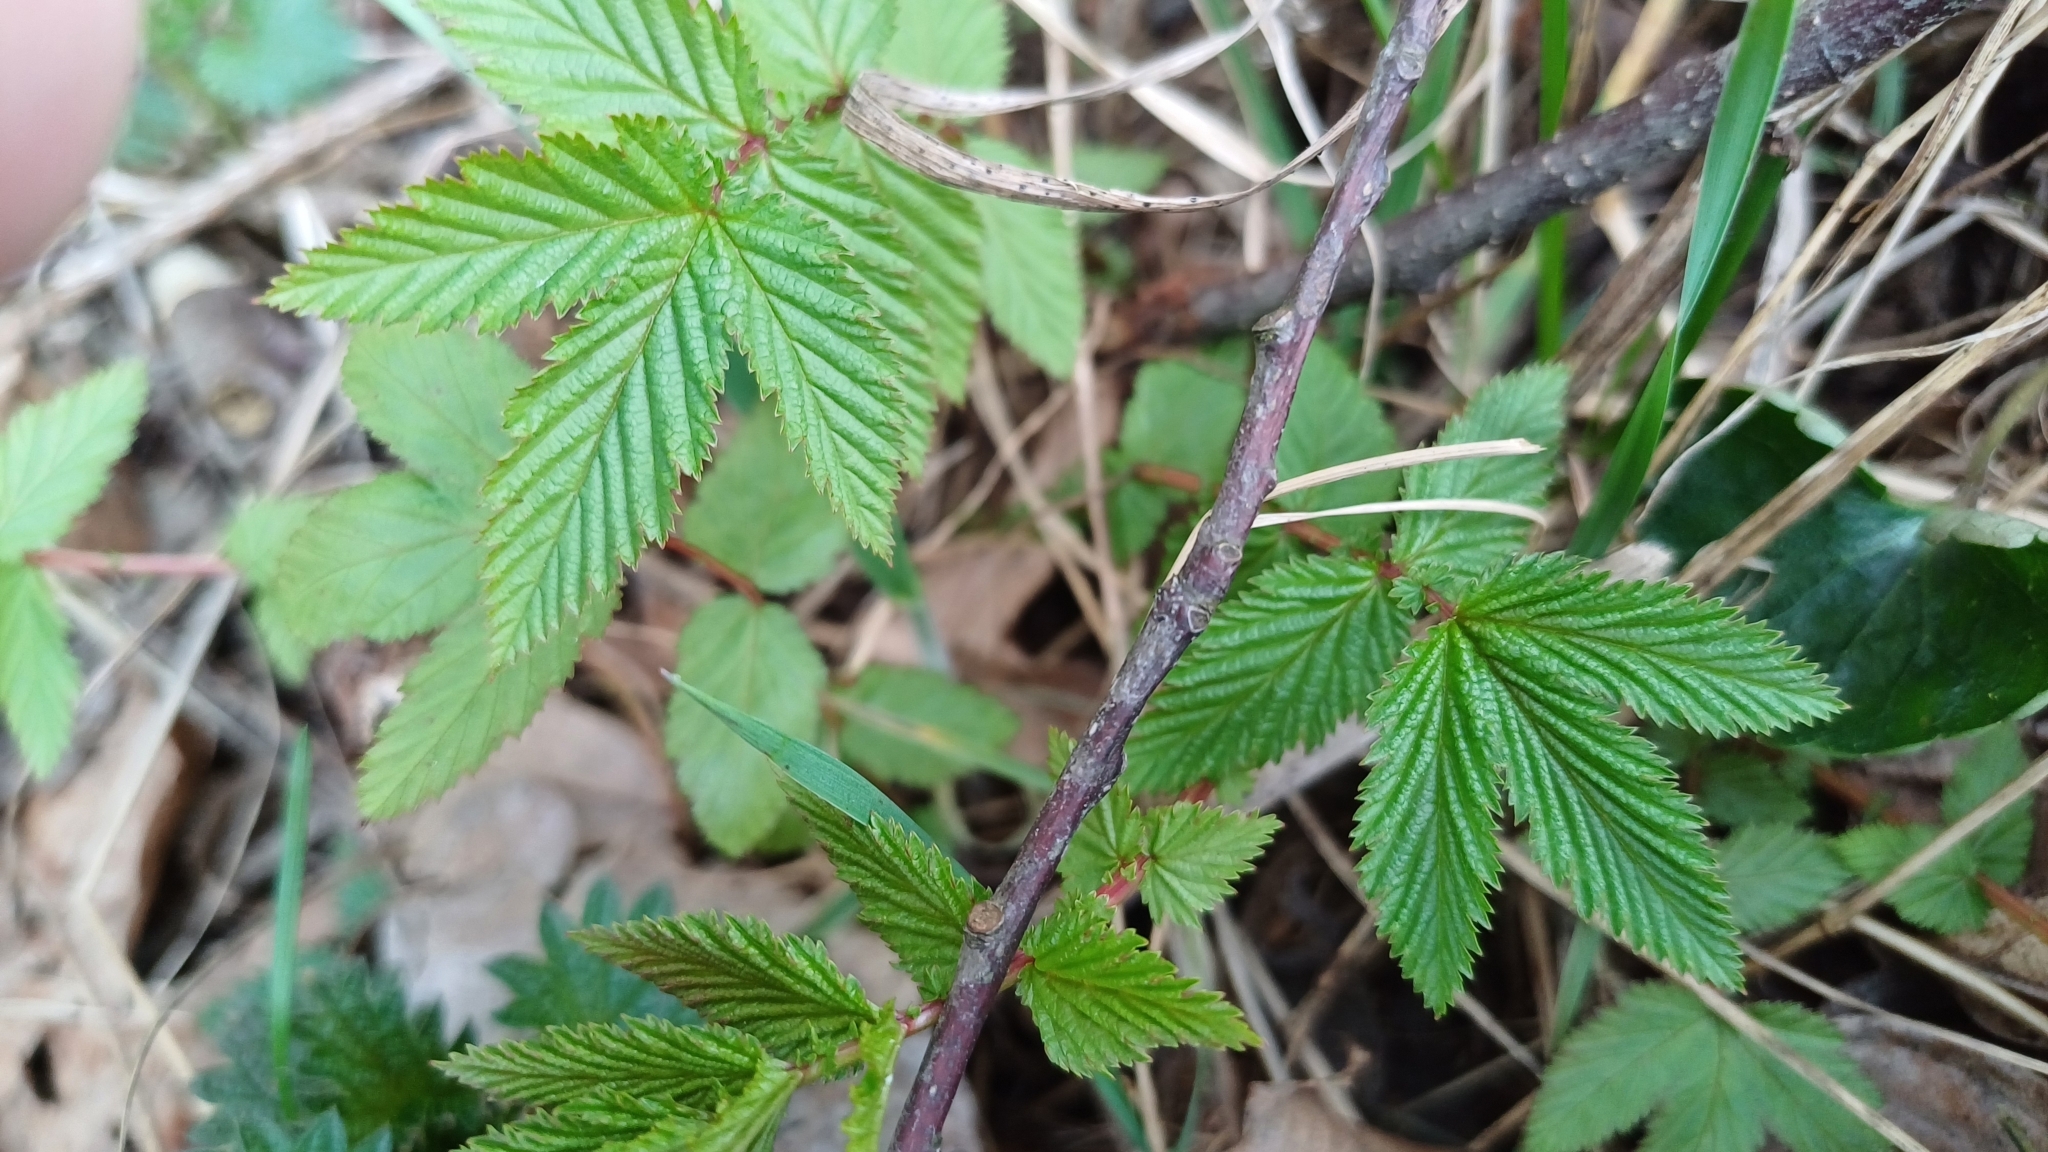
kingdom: Plantae
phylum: Tracheophyta
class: Magnoliopsida
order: Rosales
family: Rosaceae
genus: Filipendula
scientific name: Filipendula ulmaria
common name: Meadowsweet
